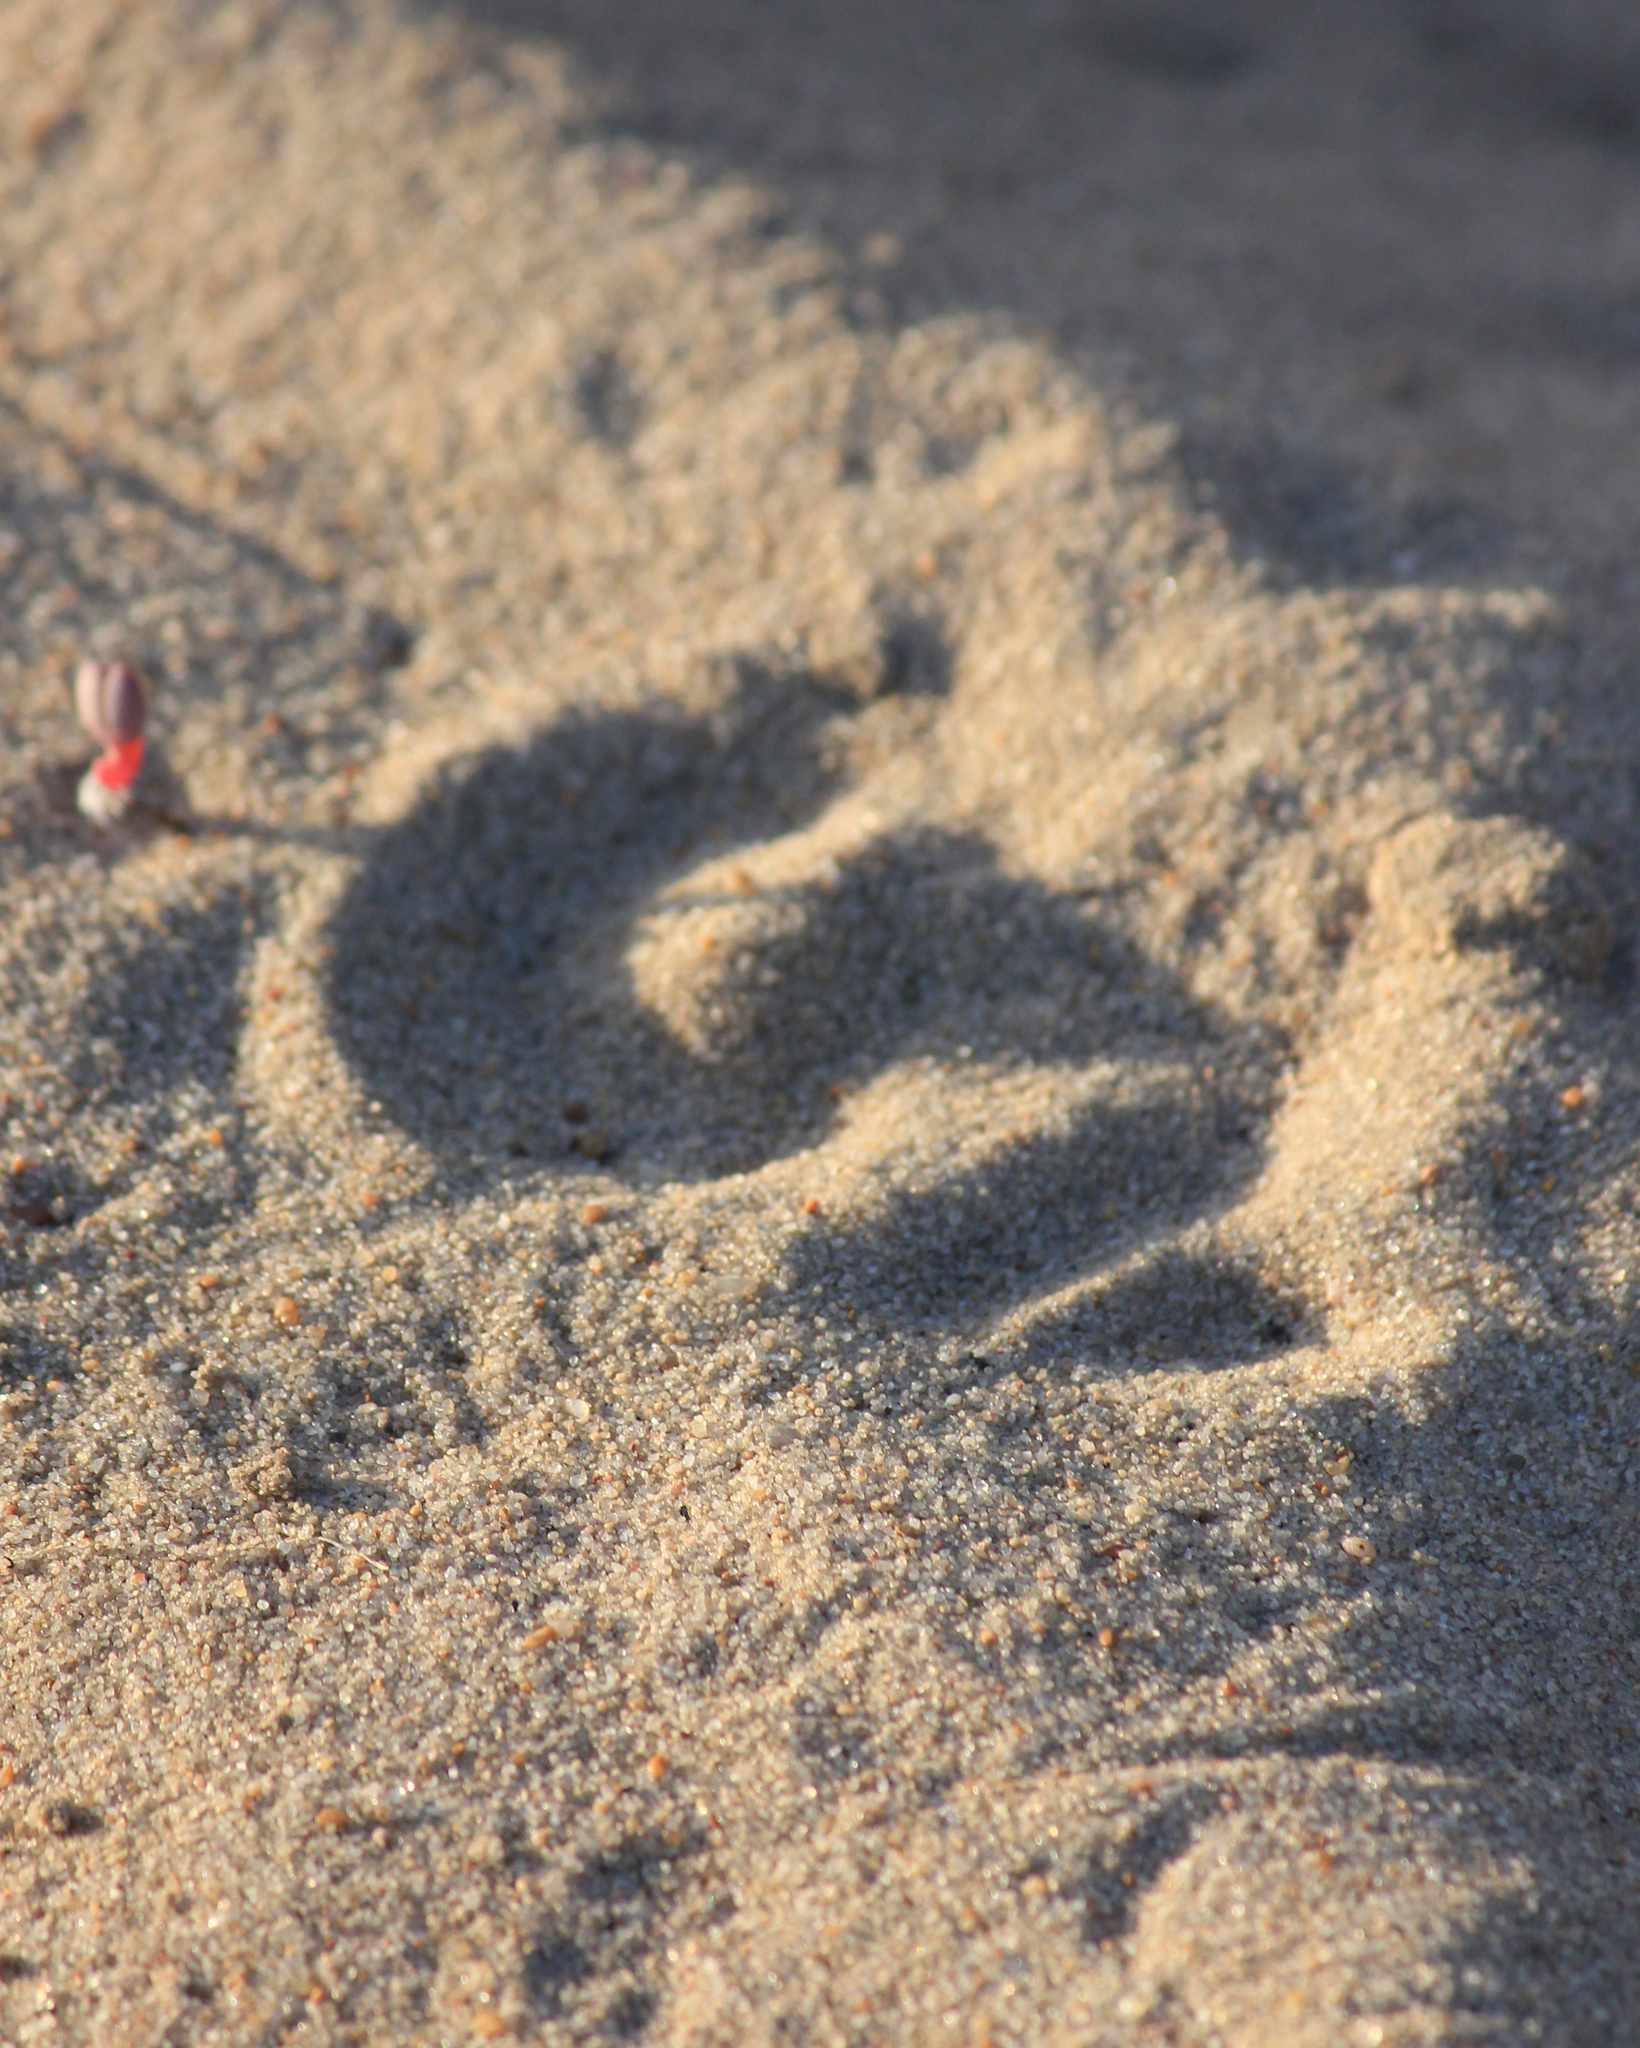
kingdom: Animalia
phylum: Chordata
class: Squamata
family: Viperidae
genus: Bitis
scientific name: Bitis schneideri
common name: Namaqua dwarf adder
